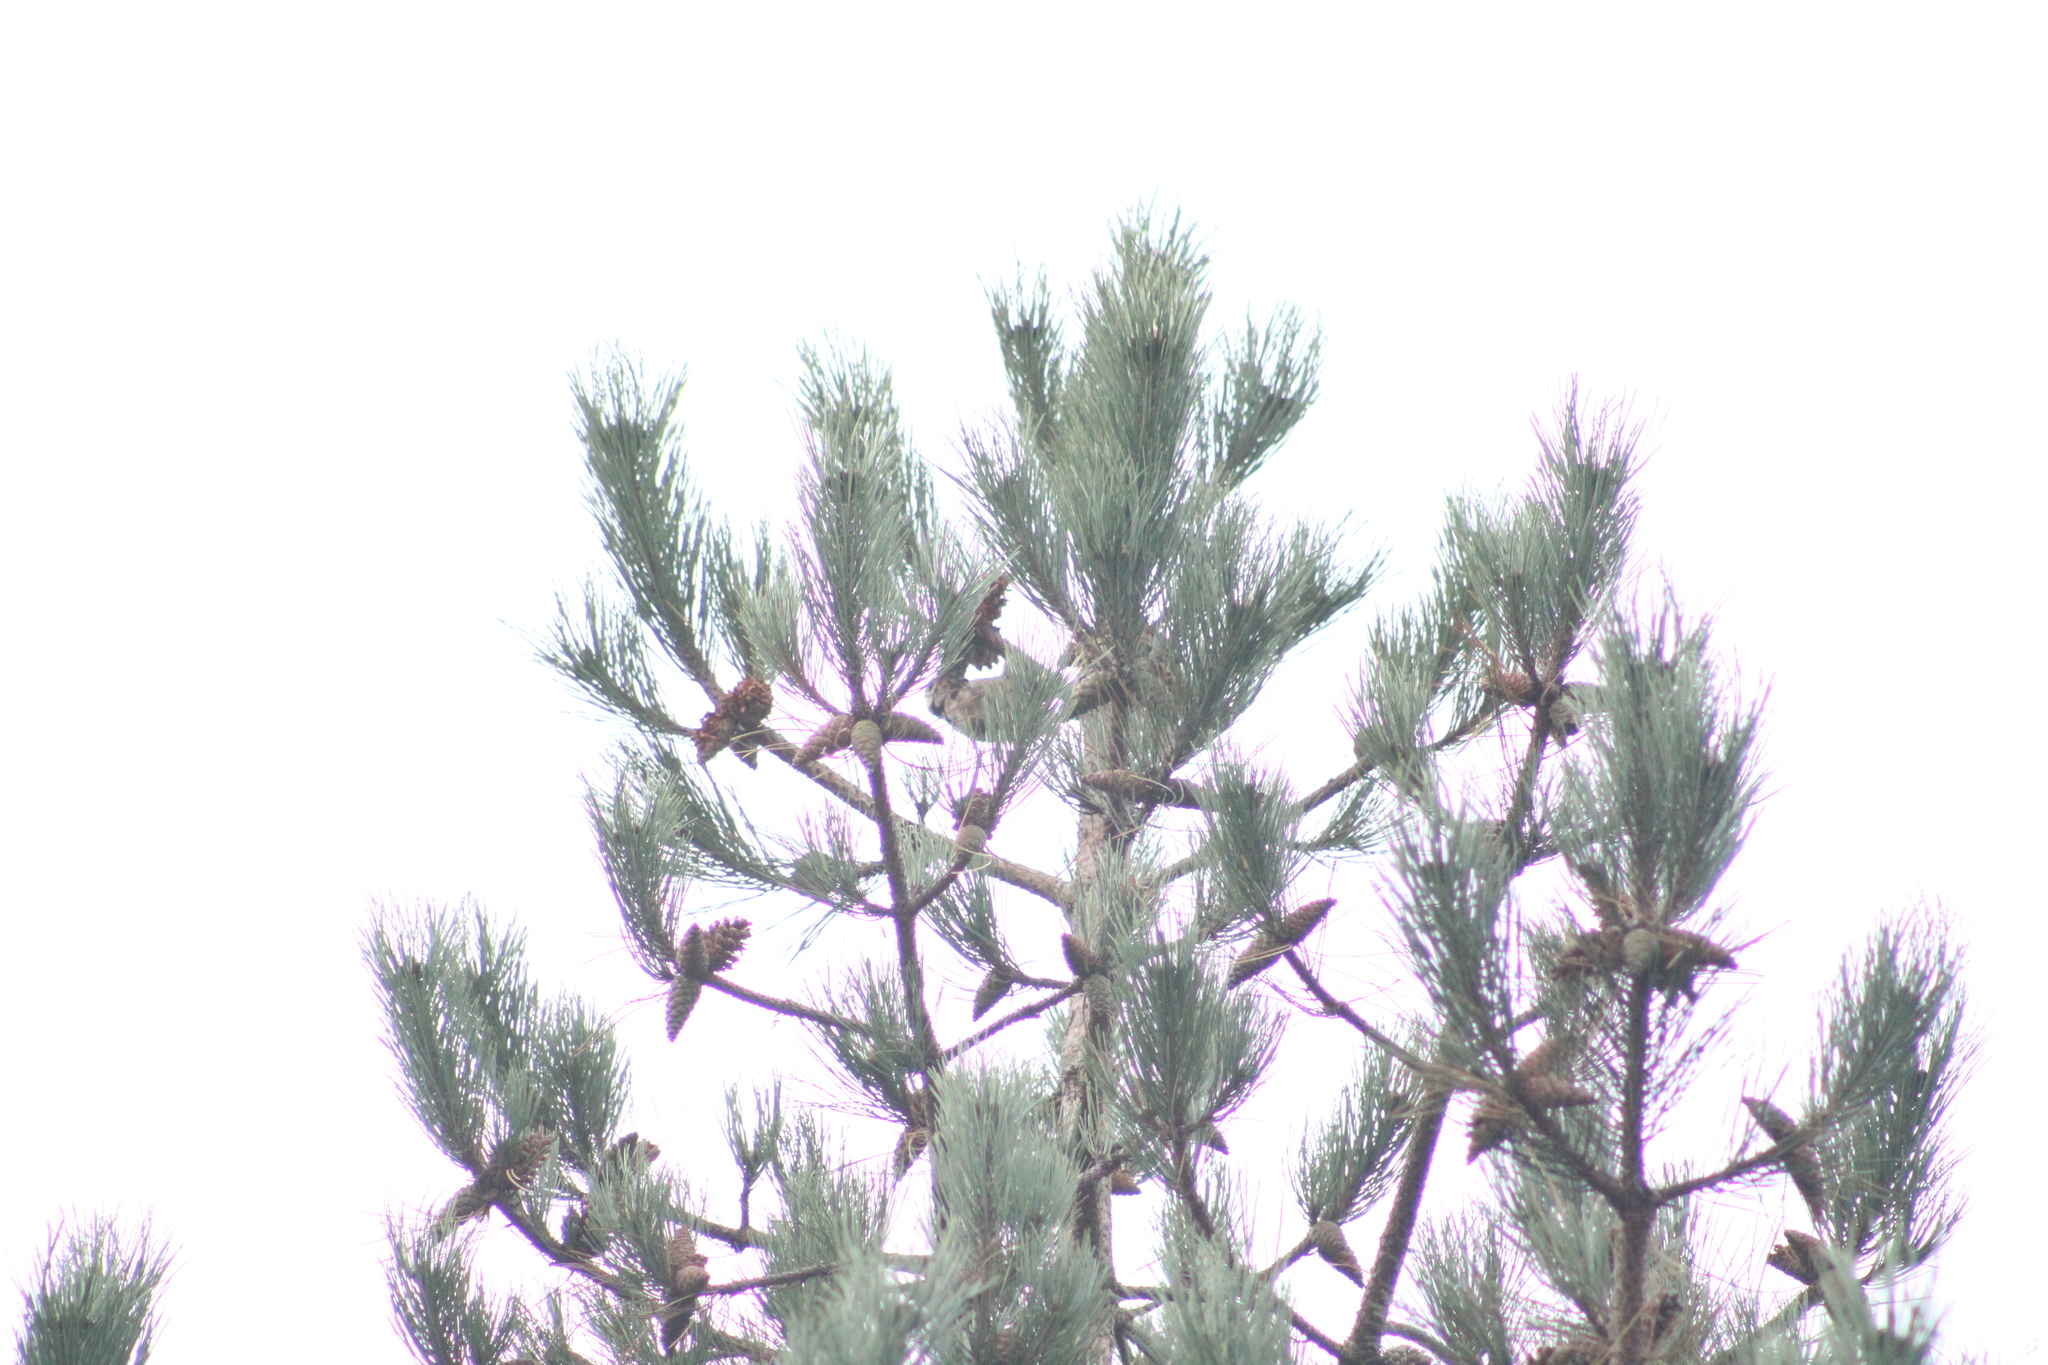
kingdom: Animalia
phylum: Chordata
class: Aves
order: Piciformes
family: Picidae
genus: Dendrocopos
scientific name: Dendrocopos major
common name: Great spotted woodpecker
